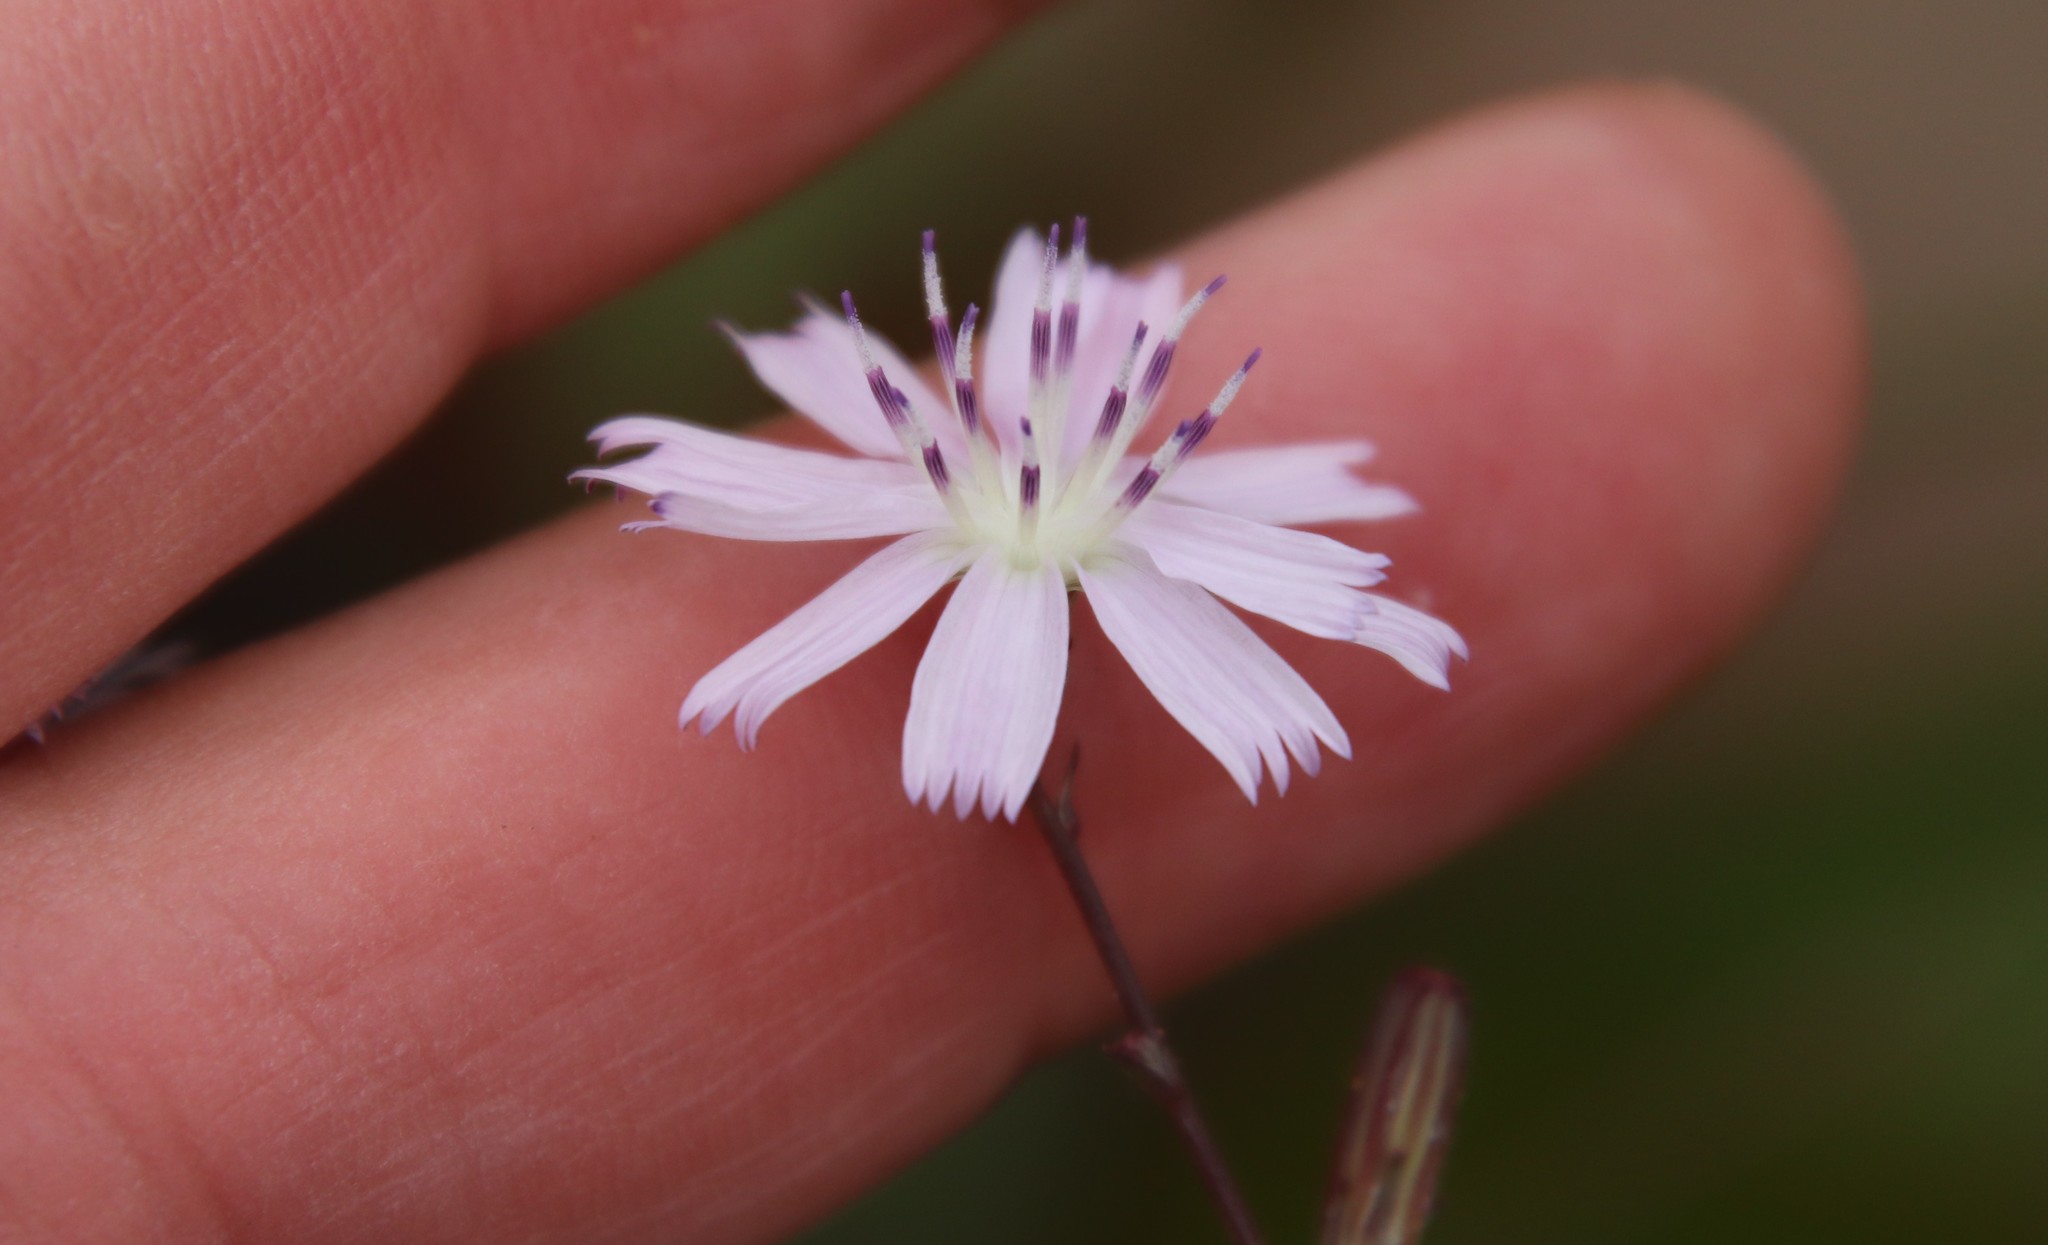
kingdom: Plantae
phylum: Tracheophyta
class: Magnoliopsida
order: Asterales
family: Asteraceae
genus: Stephanomeria
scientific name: Stephanomeria diegensis
